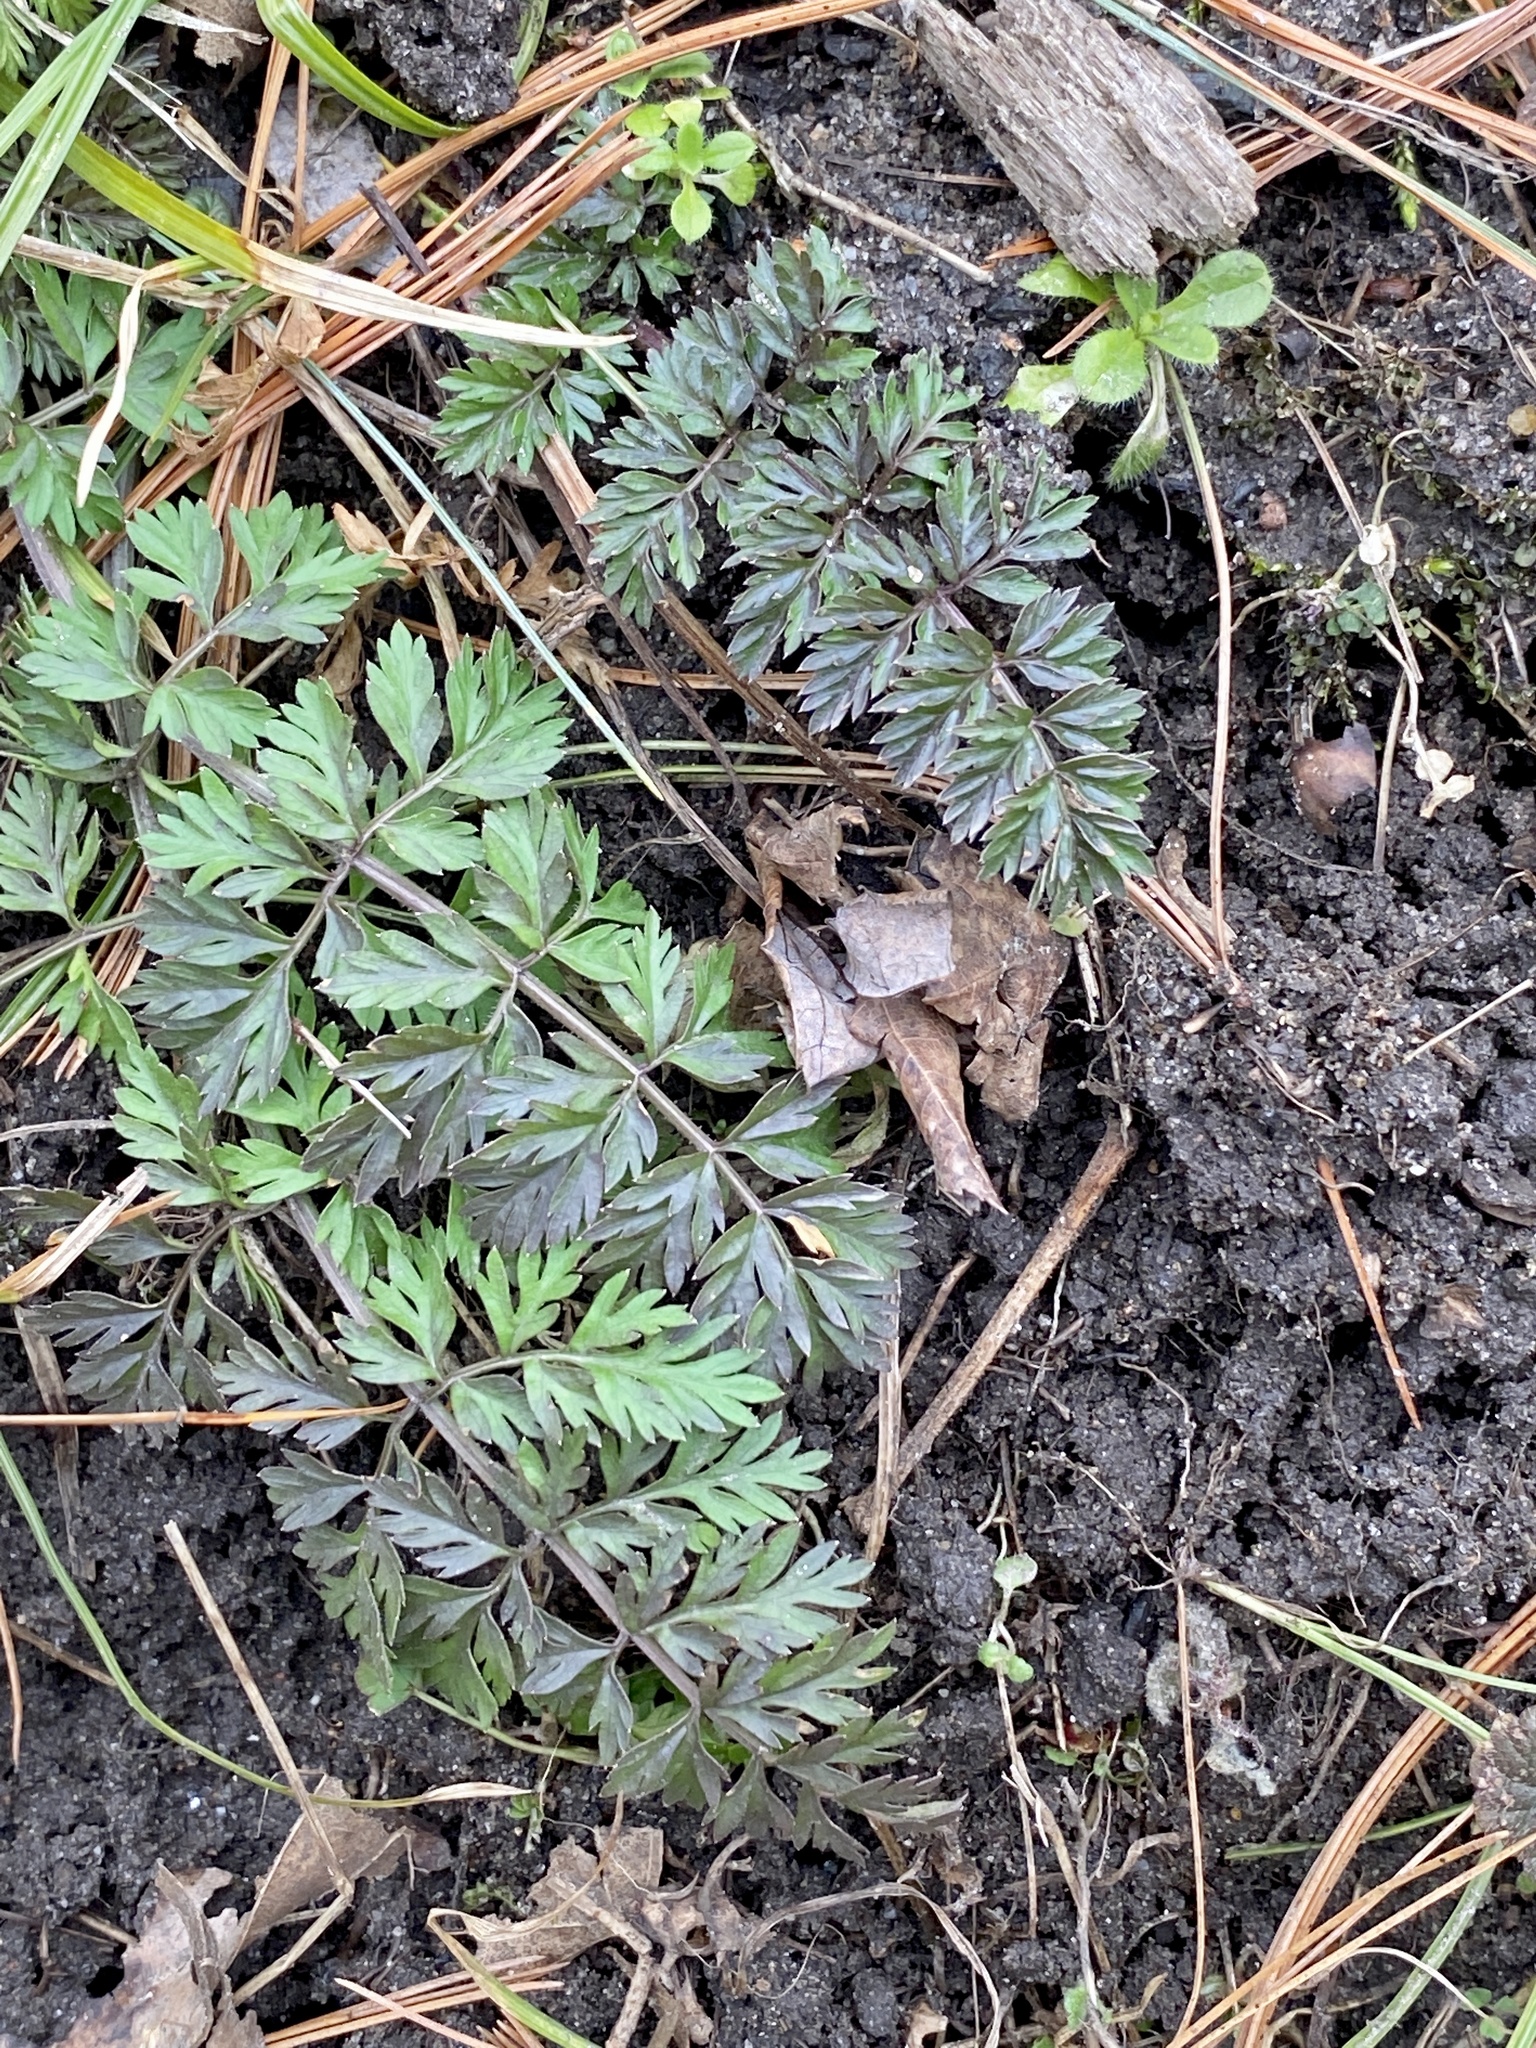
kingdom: Plantae
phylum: Tracheophyta
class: Magnoliopsida
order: Apiales
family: Apiaceae
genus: Daucus
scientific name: Daucus carota
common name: Wild carrot
